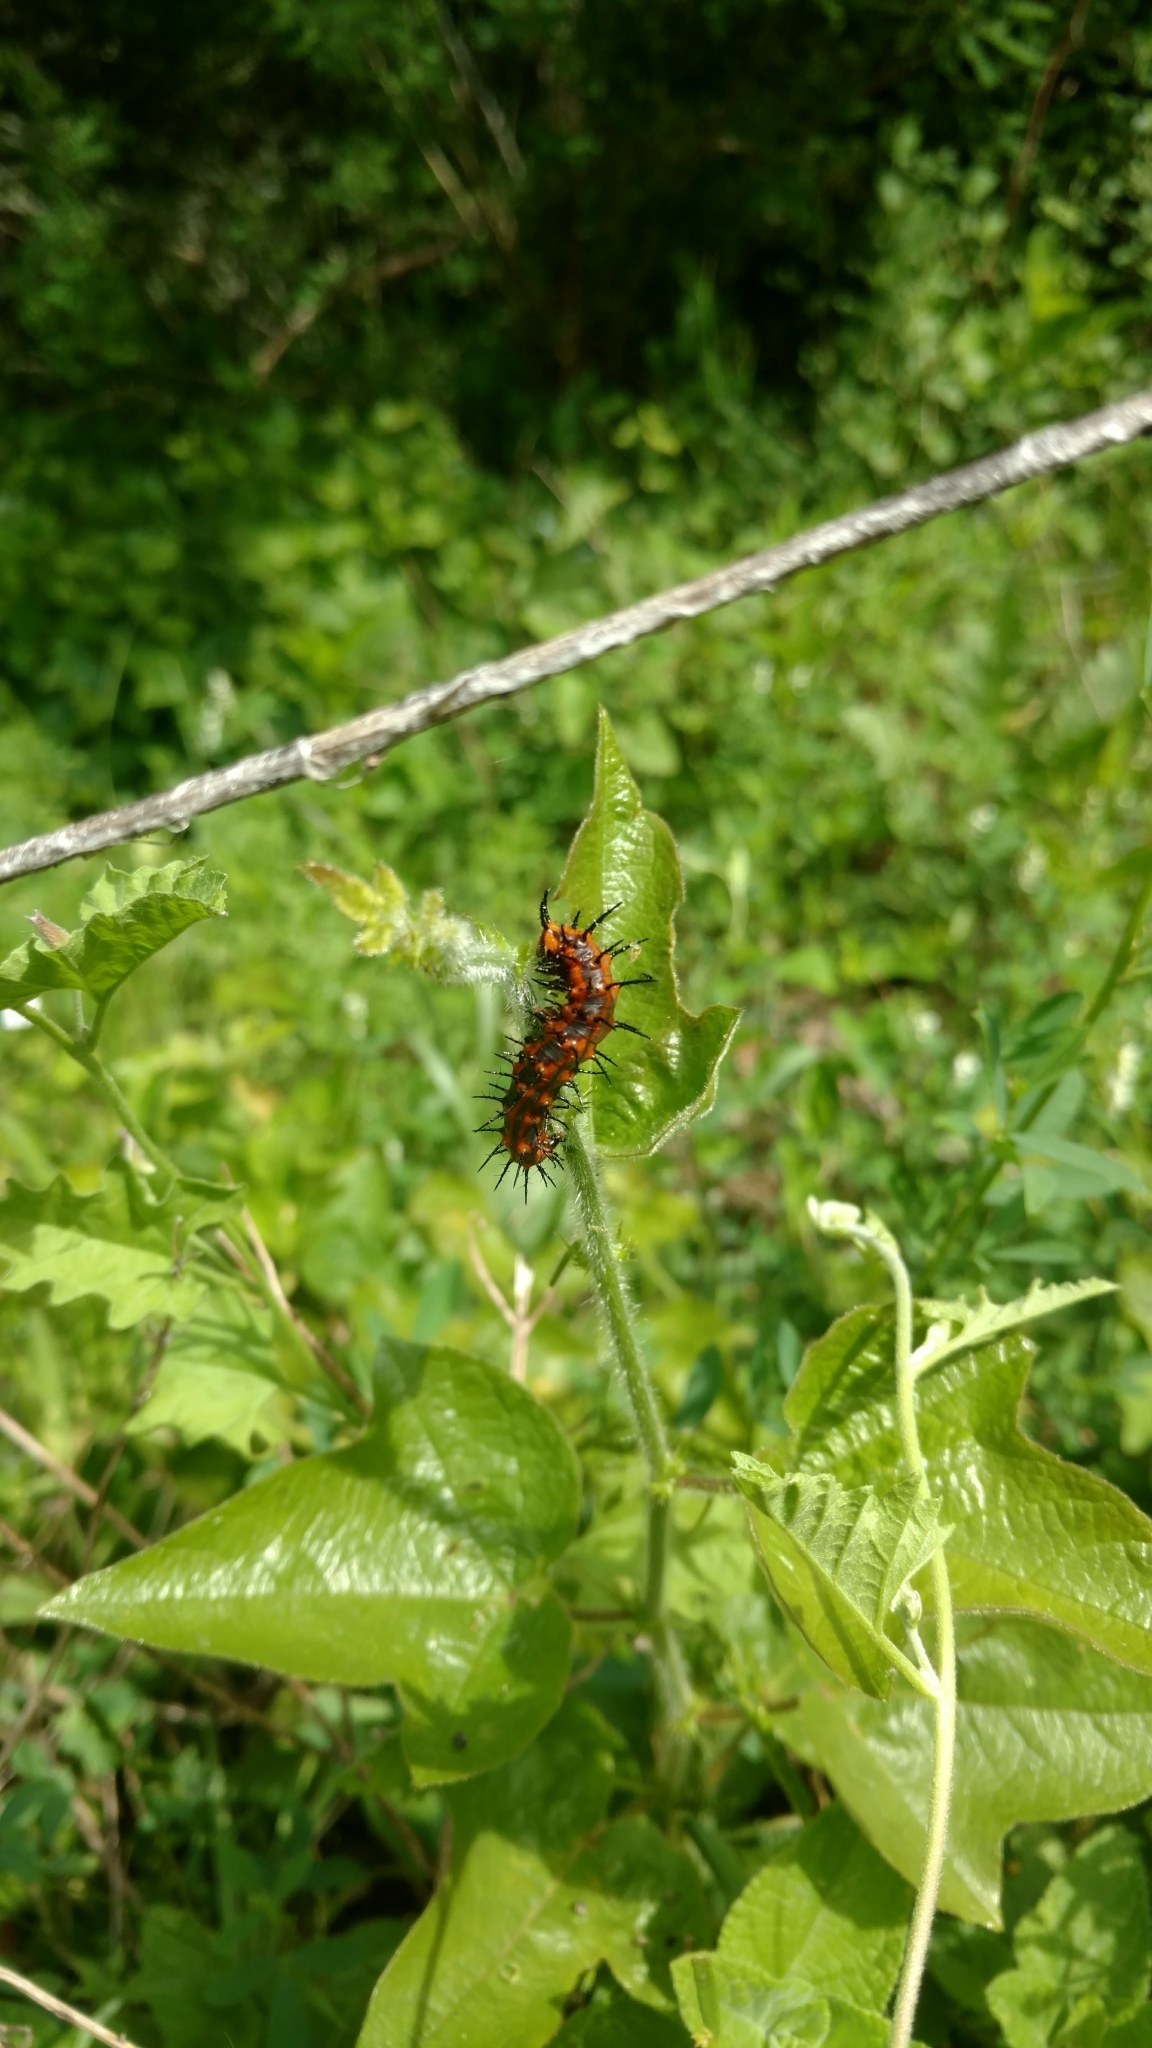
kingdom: Animalia
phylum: Arthropoda
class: Insecta
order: Lepidoptera
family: Nymphalidae
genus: Dione
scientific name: Dione vanillae
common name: Gulf fritillary
